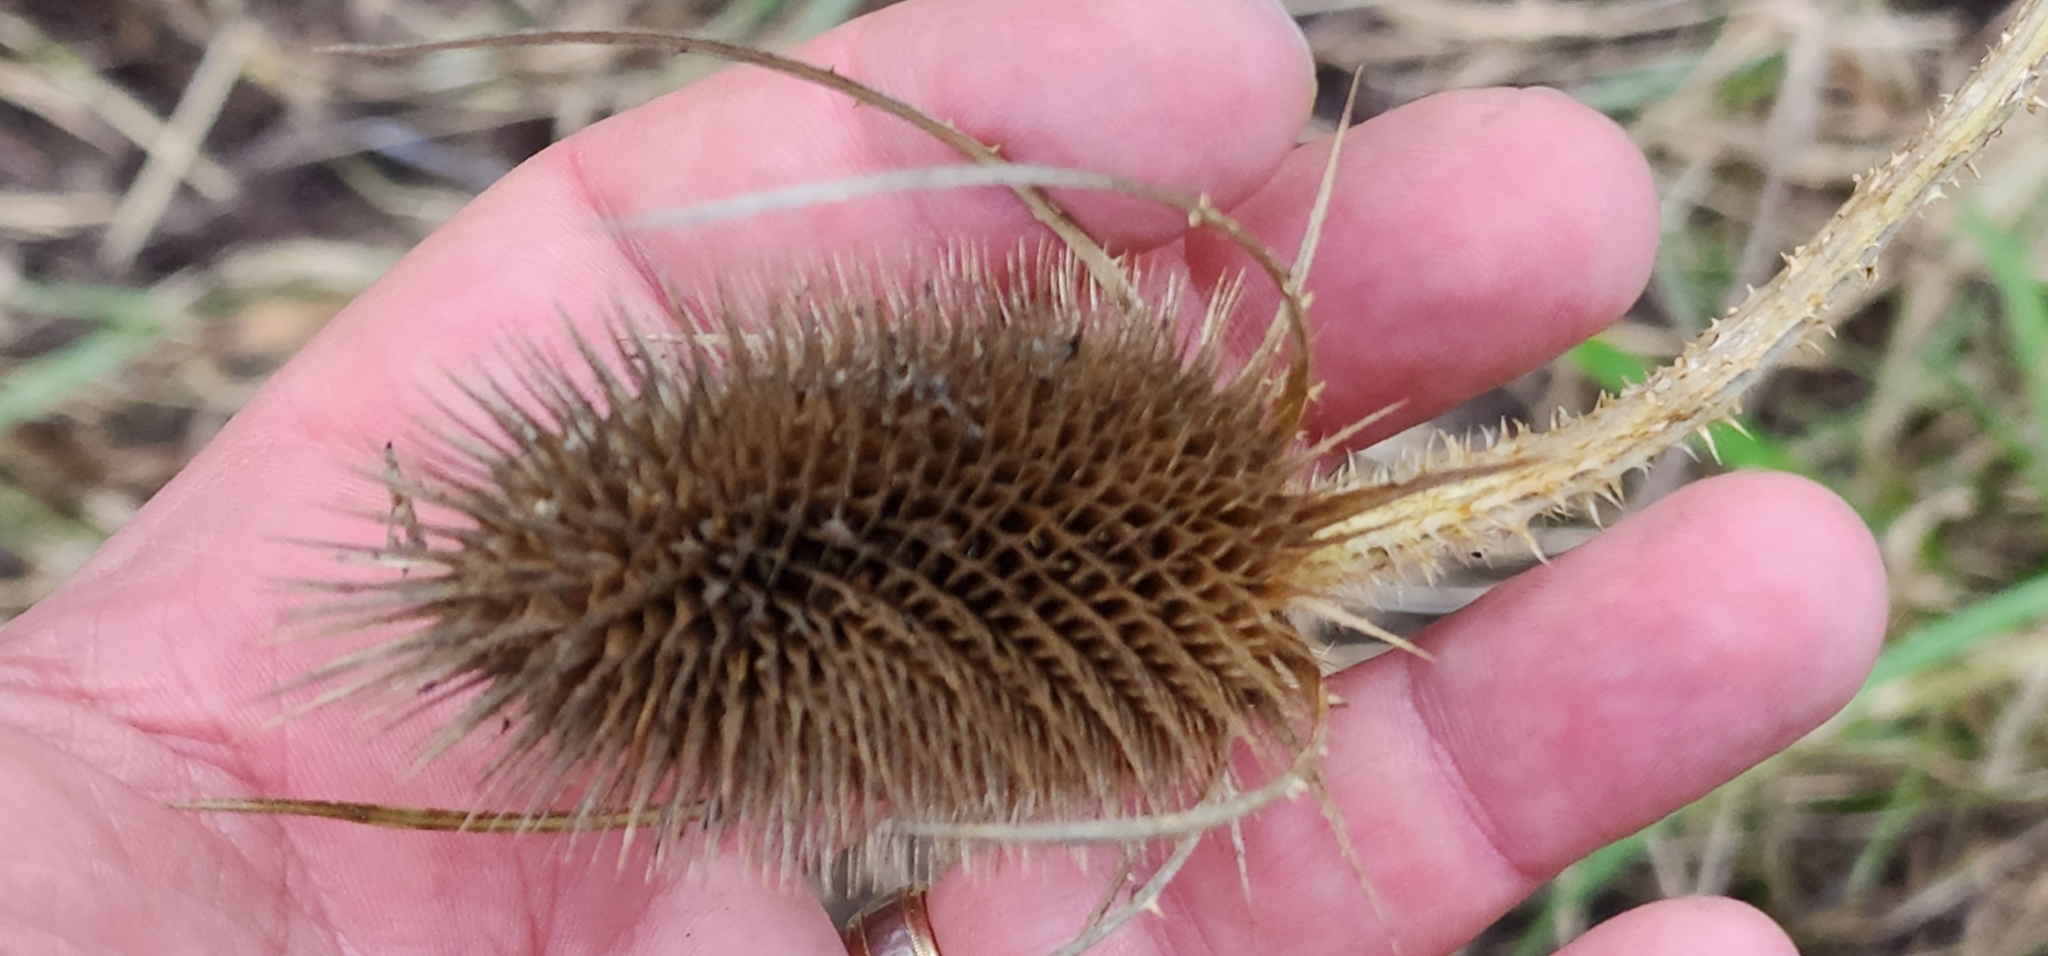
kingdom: Plantae
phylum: Tracheophyta
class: Magnoliopsida
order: Dipsacales
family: Caprifoliaceae
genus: Dipsacus
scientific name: Dipsacus fullonum
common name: Teasel
